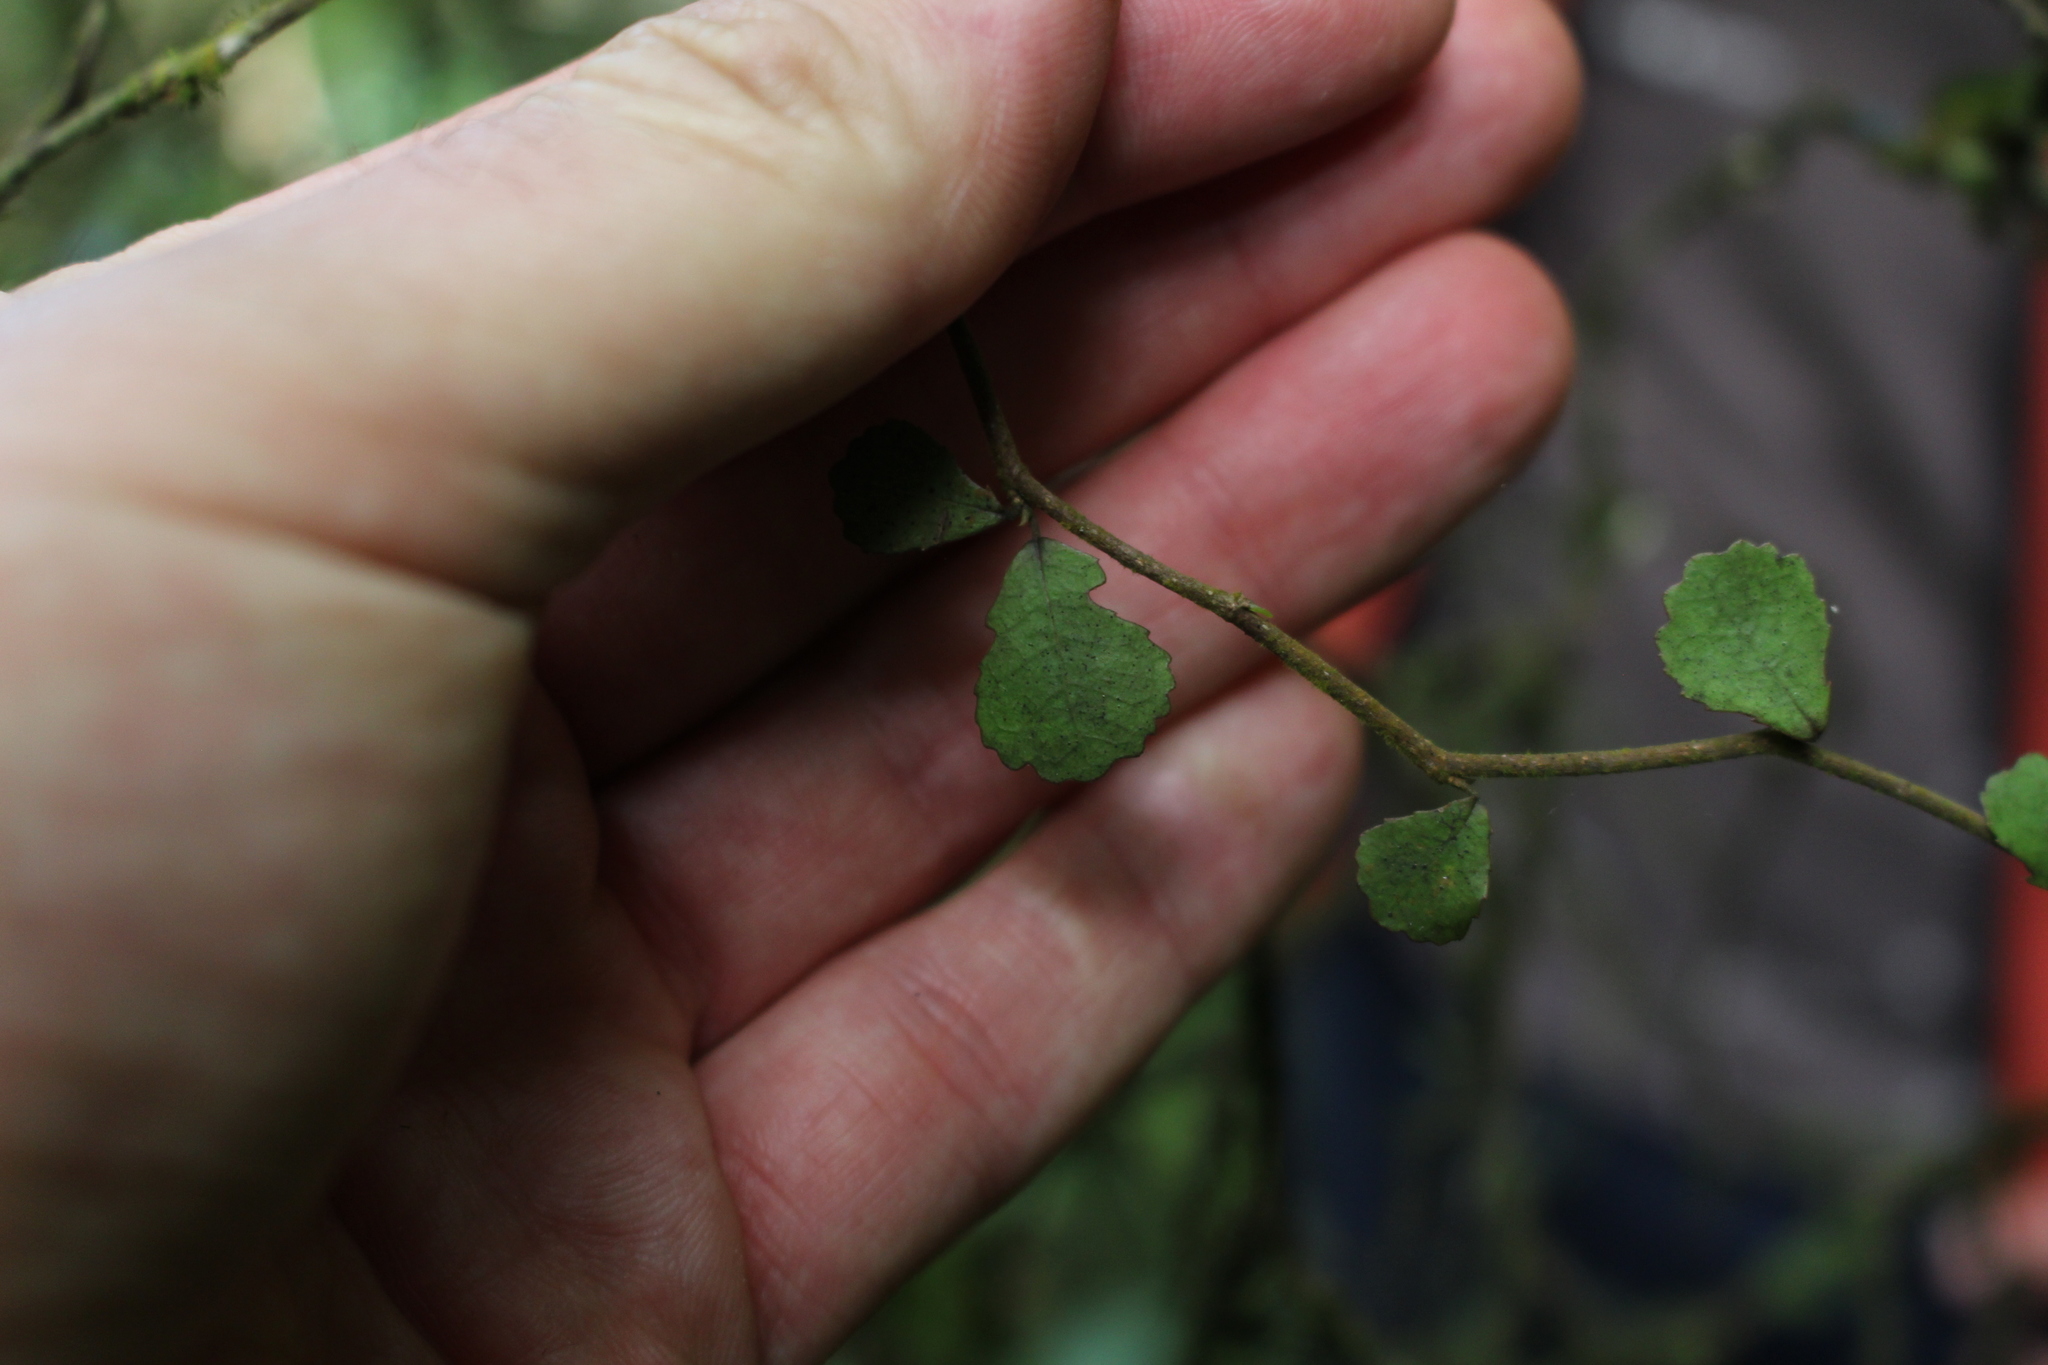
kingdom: Plantae
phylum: Tracheophyta
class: Magnoliopsida
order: Rosales
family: Moraceae
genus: Paratrophis
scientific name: Paratrophis microphylla
